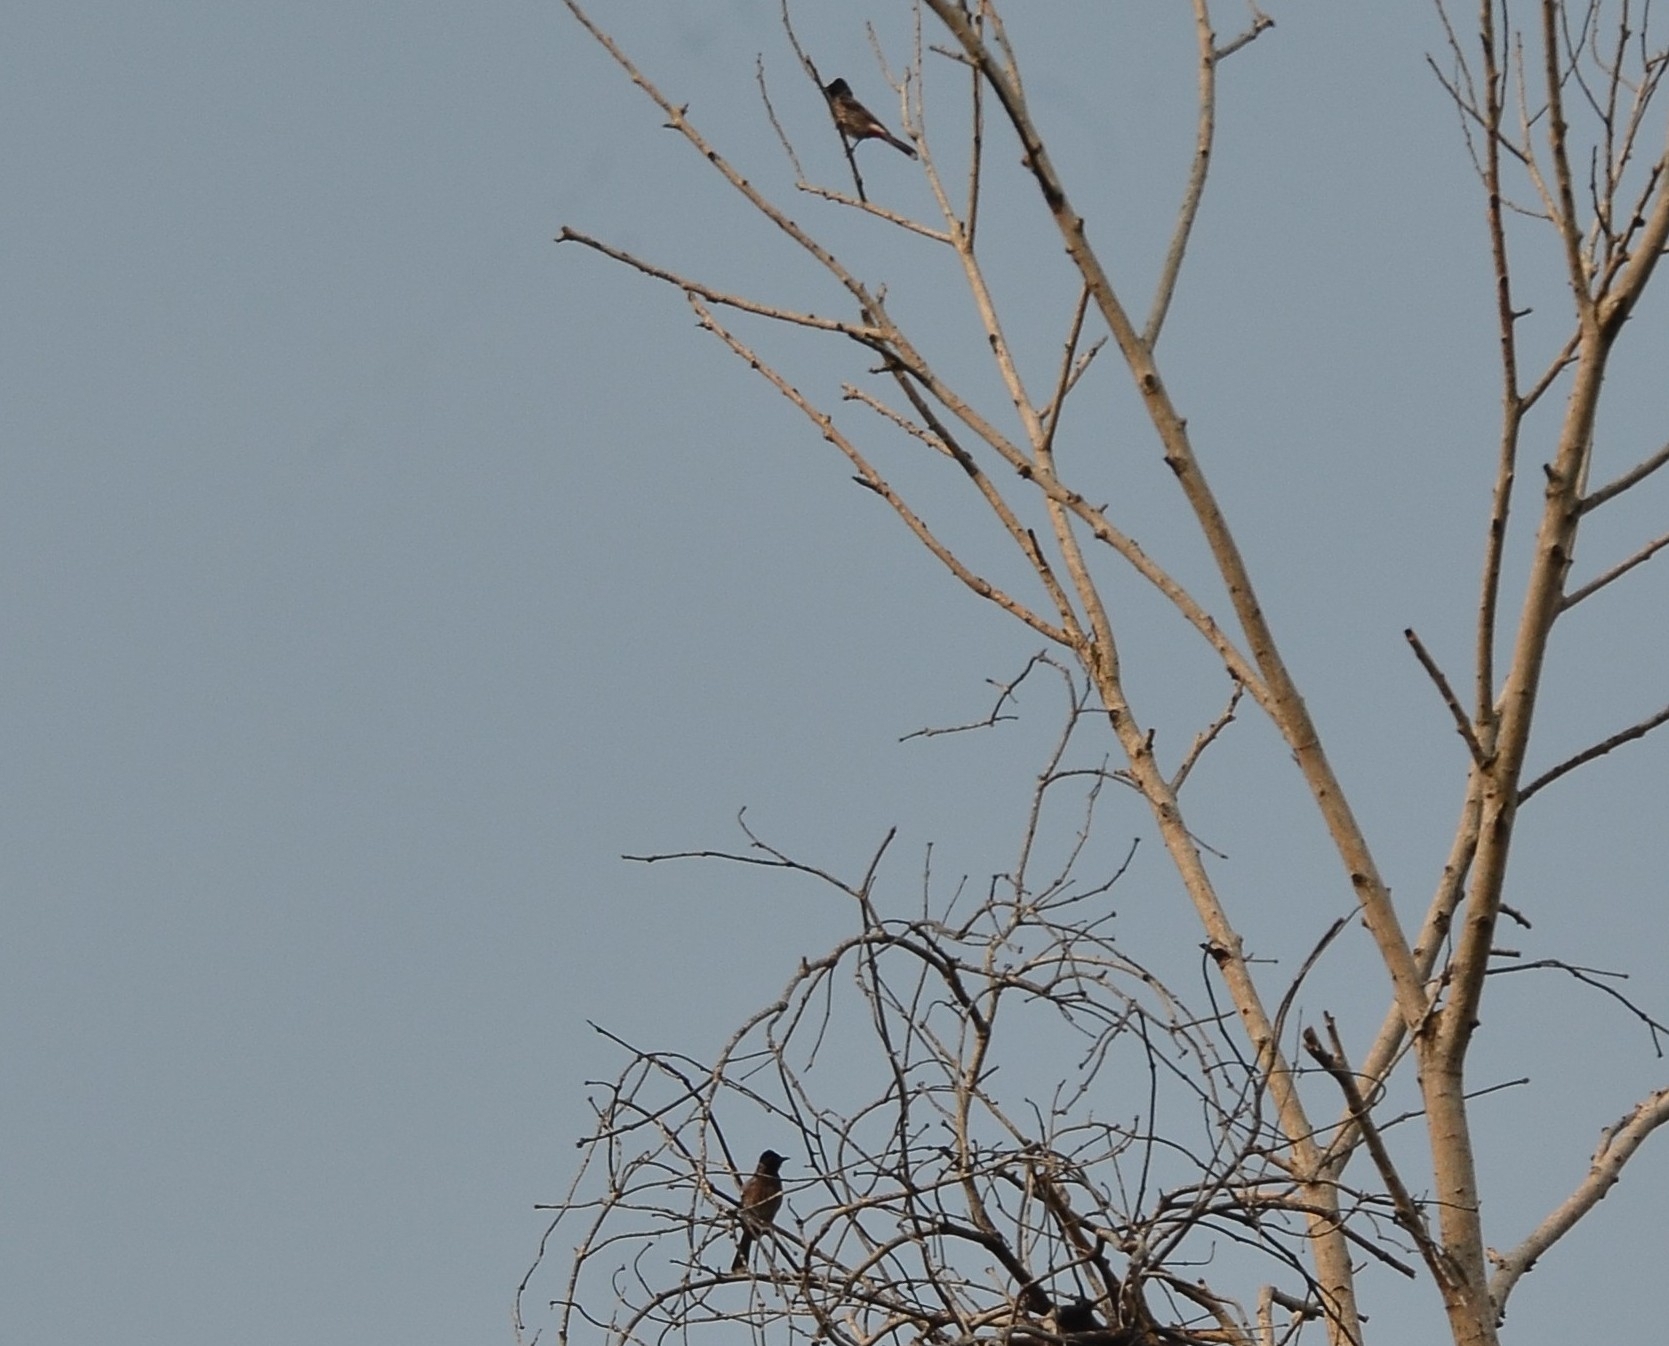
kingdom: Animalia
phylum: Chordata
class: Aves
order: Passeriformes
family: Pycnonotidae
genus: Pycnonotus
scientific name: Pycnonotus cafer
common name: Red-vented bulbul
